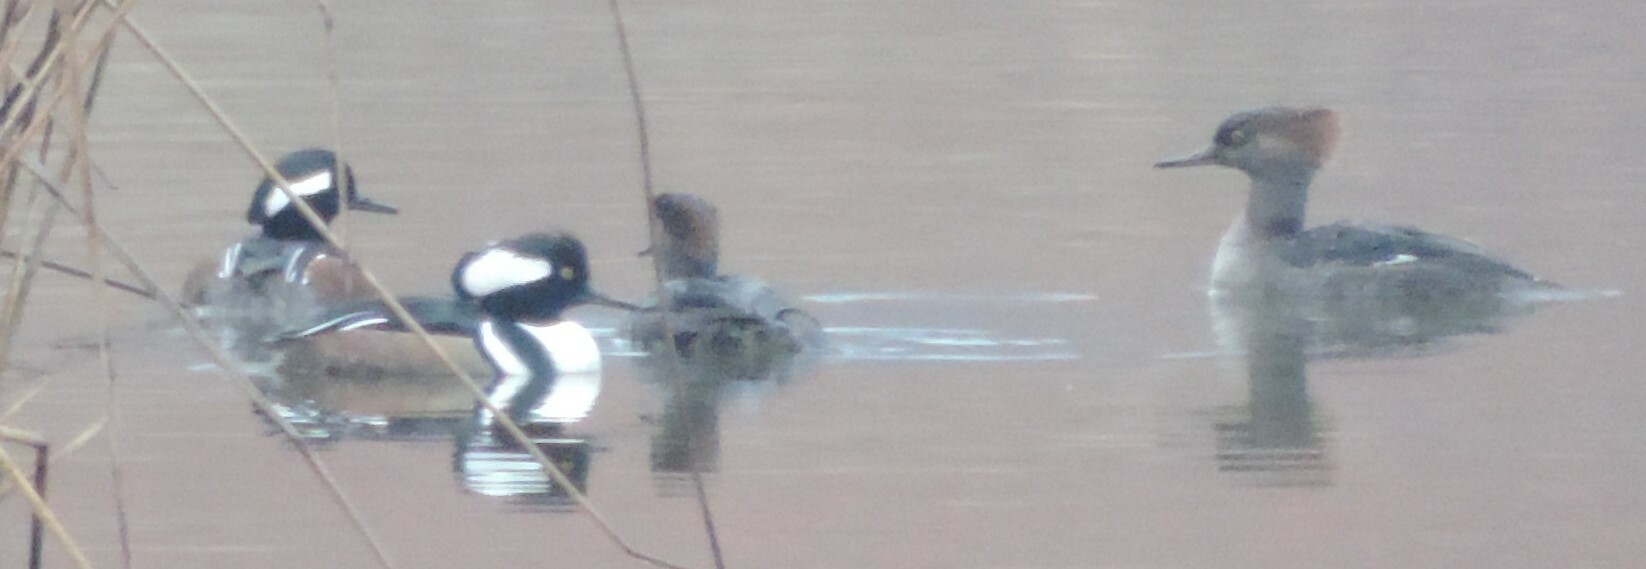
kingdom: Animalia
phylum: Chordata
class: Aves
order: Anseriformes
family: Anatidae
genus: Lophodytes
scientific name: Lophodytes cucullatus
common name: Hooded merganser
